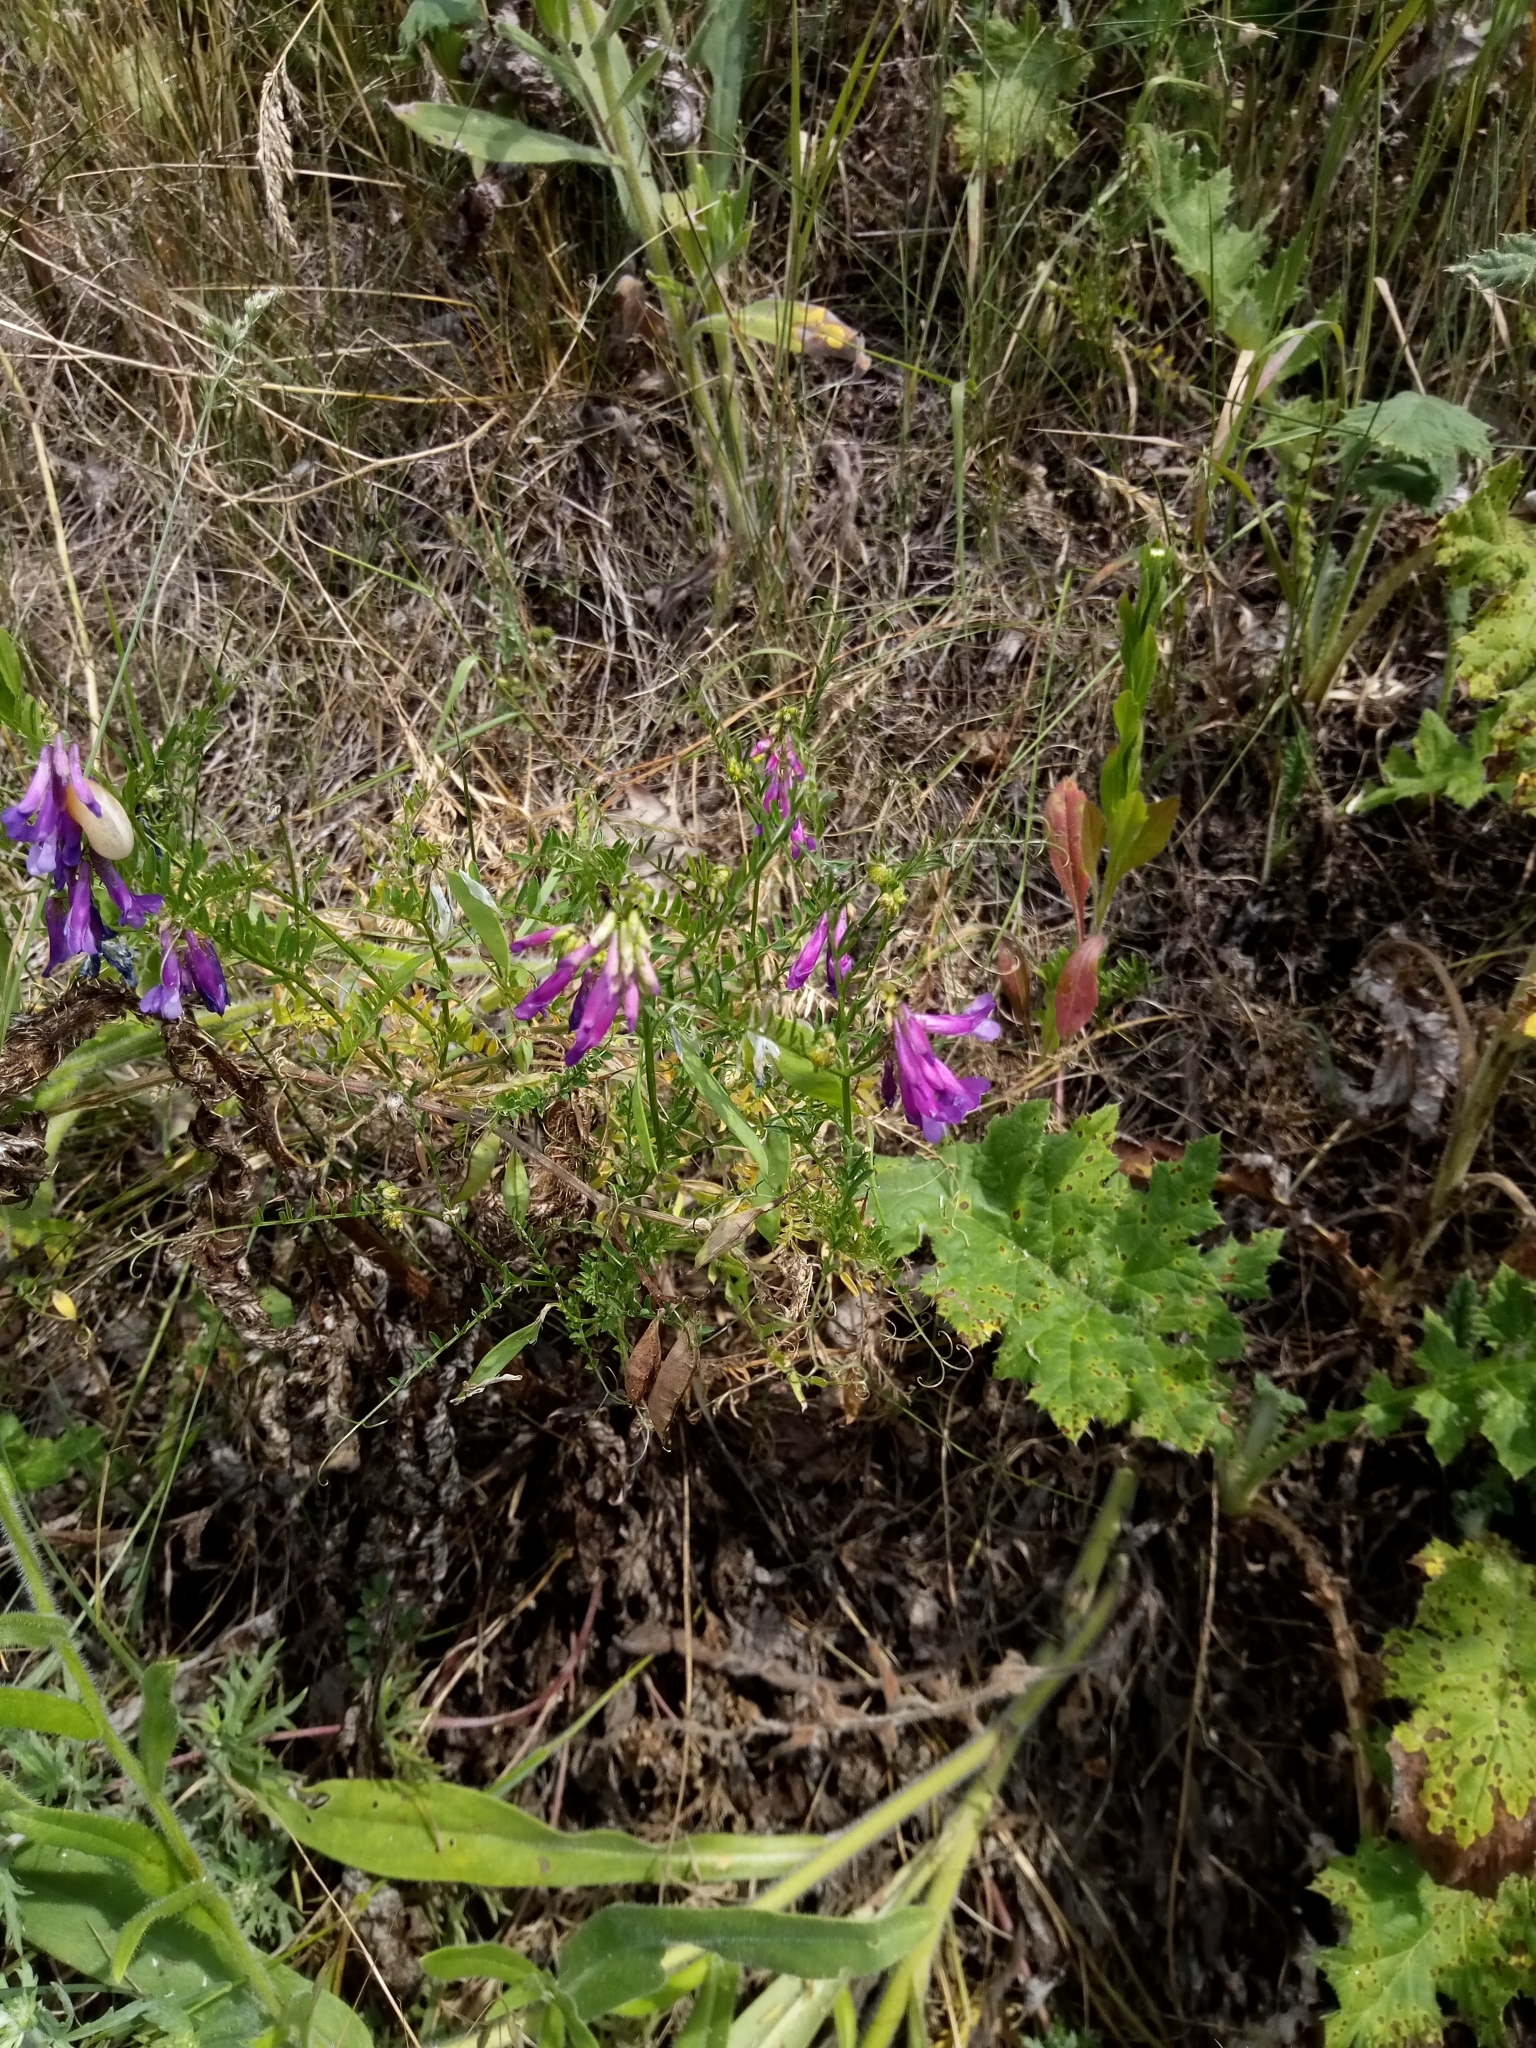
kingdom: Plantae
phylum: Tracheophyta
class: Magnoliopsida
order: Fabales
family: Fabaceae
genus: Vicia
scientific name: Vicia villosa
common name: Fodder vetch
